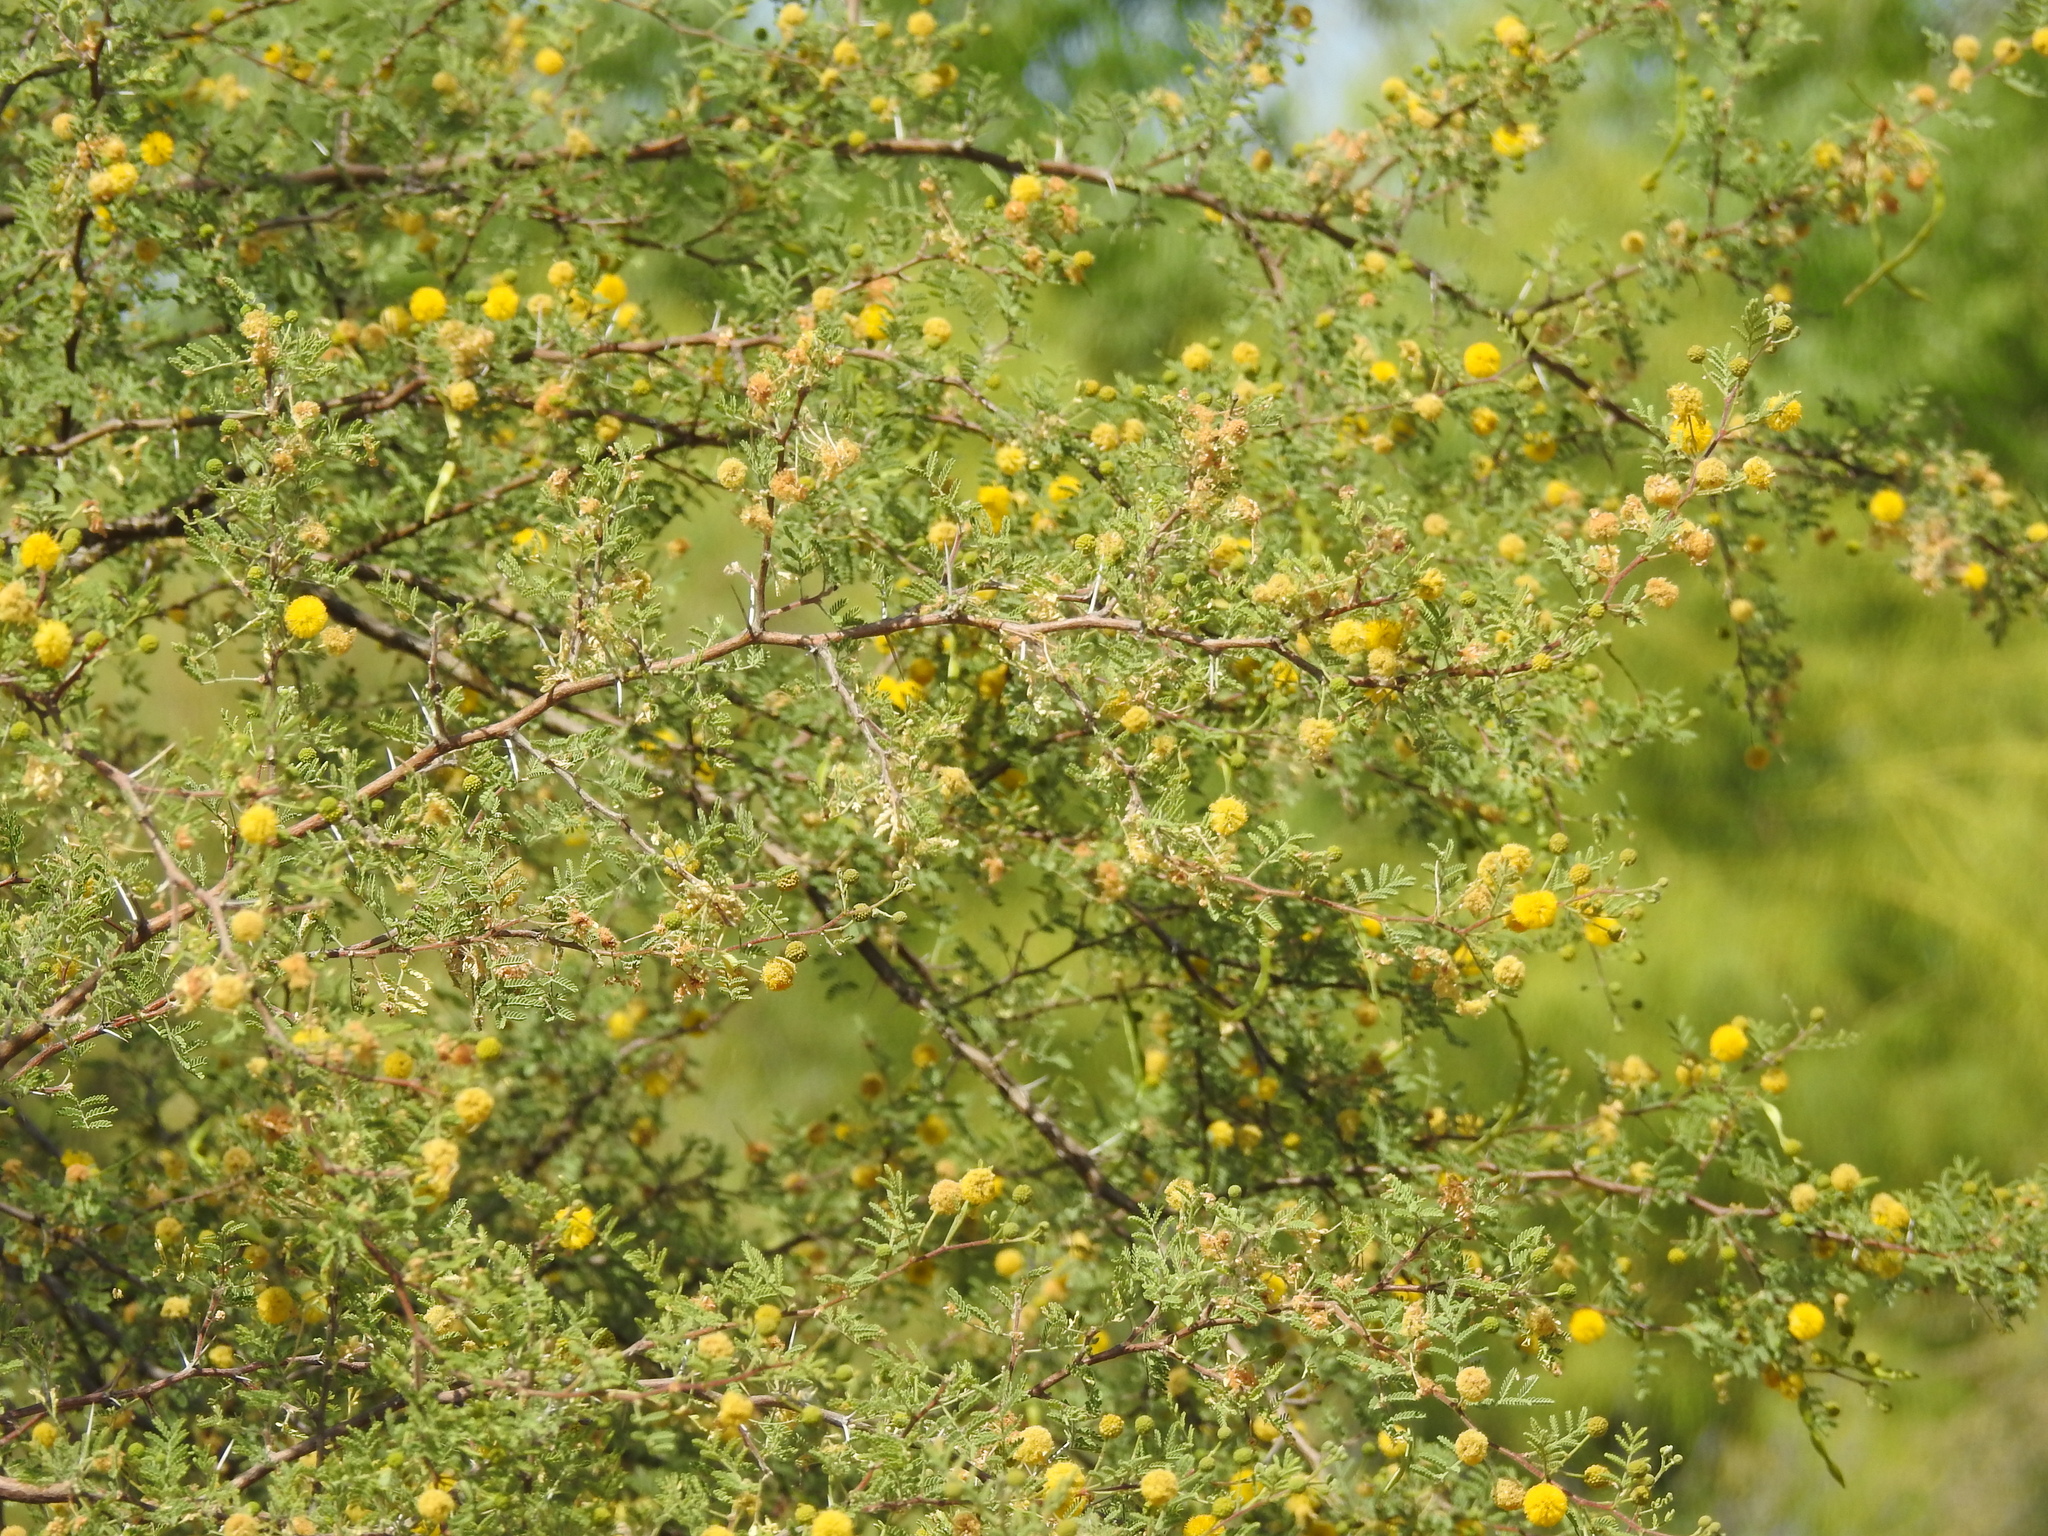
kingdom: Plantae
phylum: Tracheophyta
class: Magnoliopsida
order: Fabales
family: Fabaceae
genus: Vachellia
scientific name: Vachellia constricta
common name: Mescat acacia
